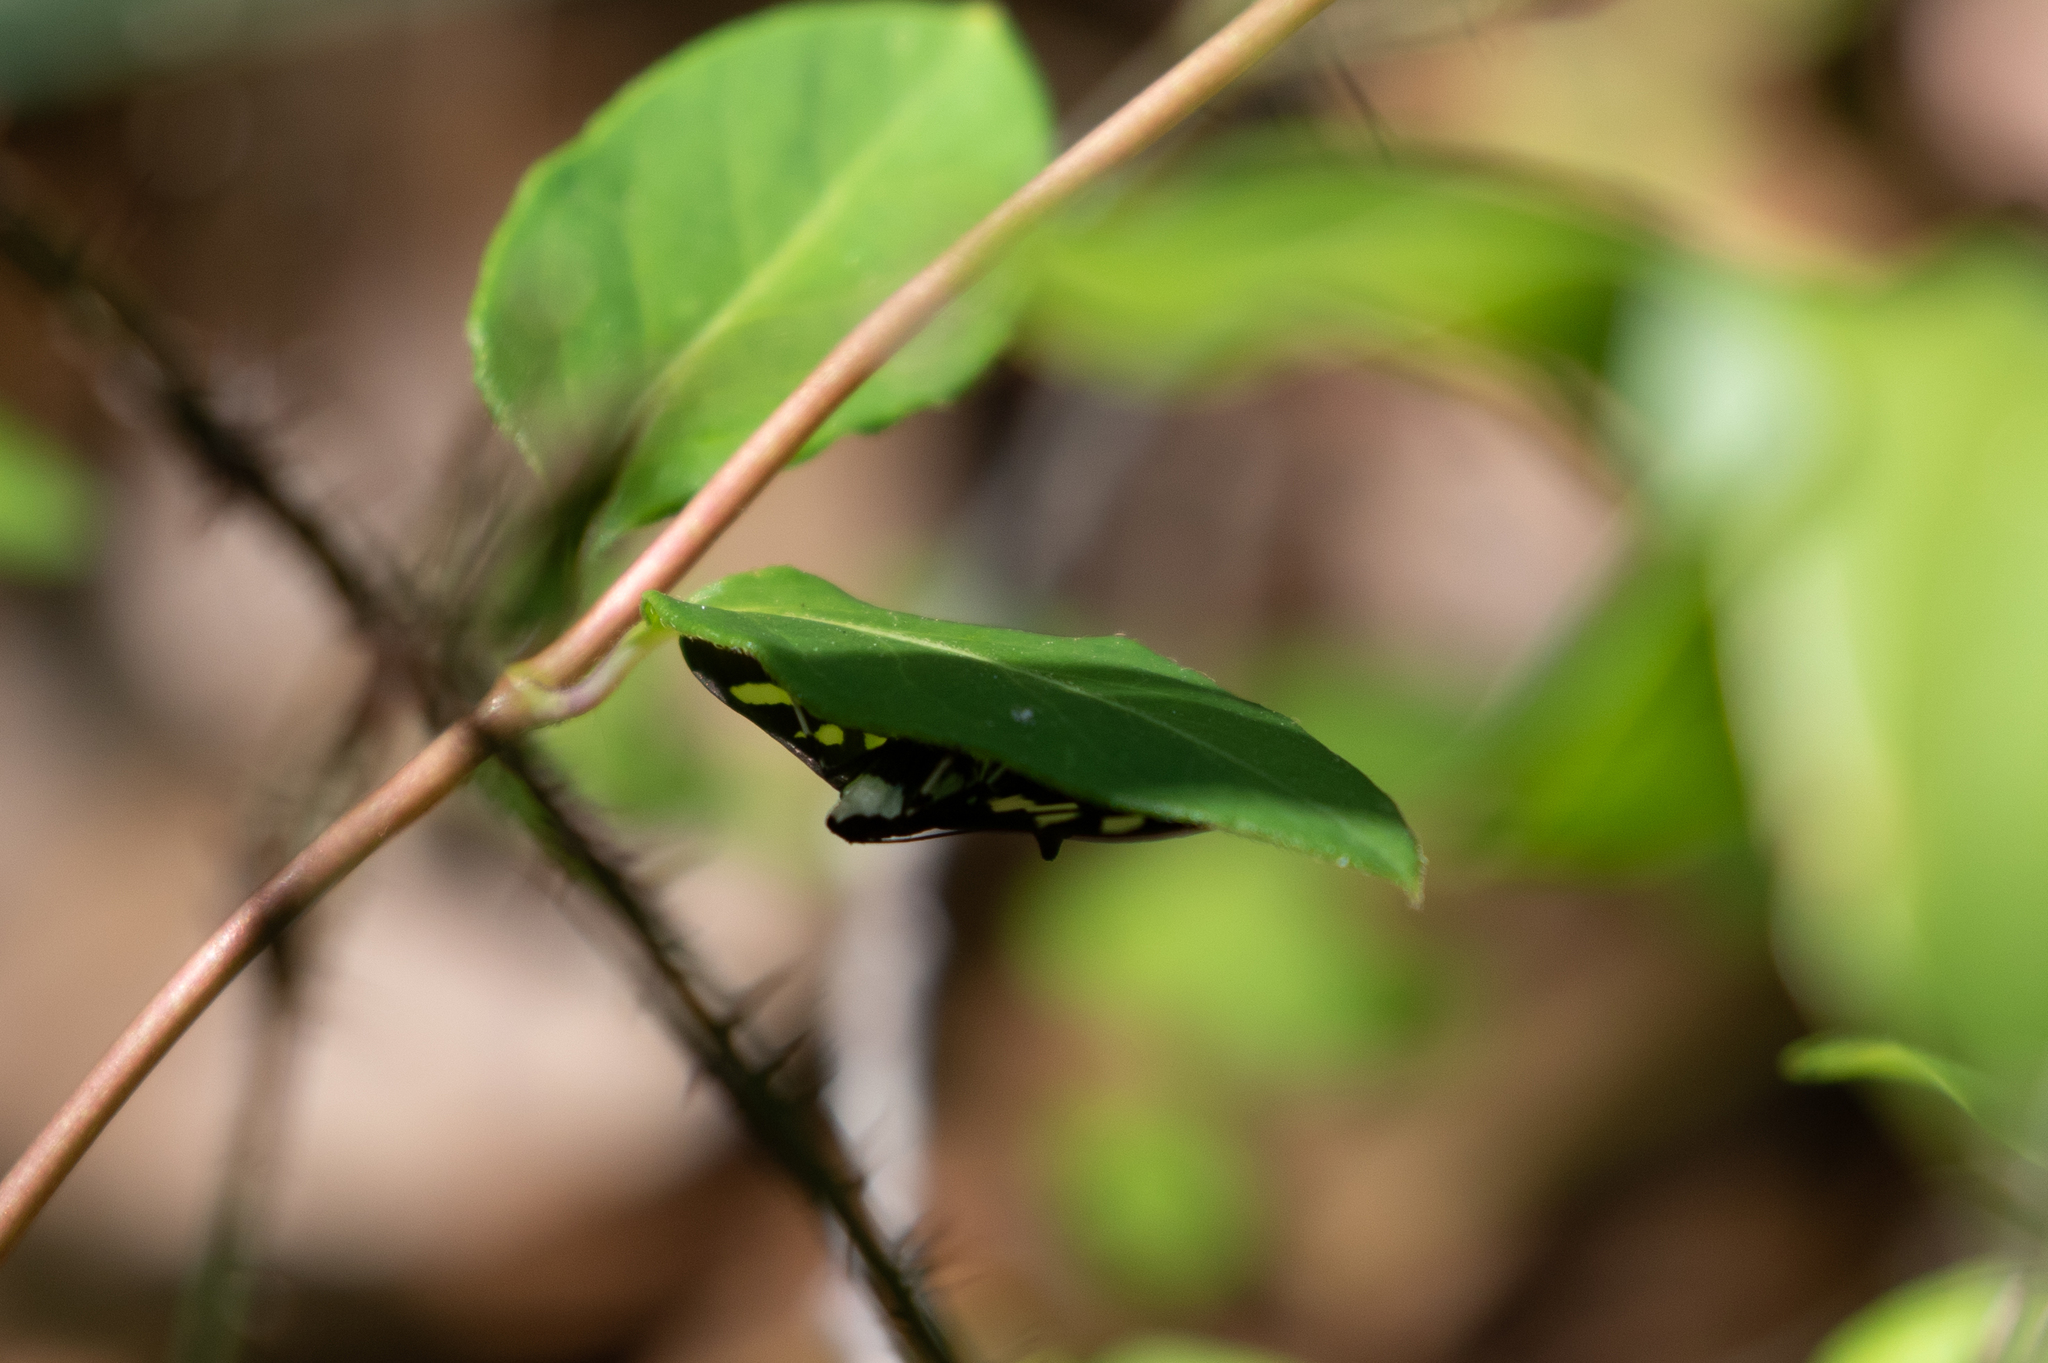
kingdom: Animalia
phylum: Arthropoda
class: Insecta
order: Lepidoptera
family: Crambidae
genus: Desmia
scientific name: Desmia
